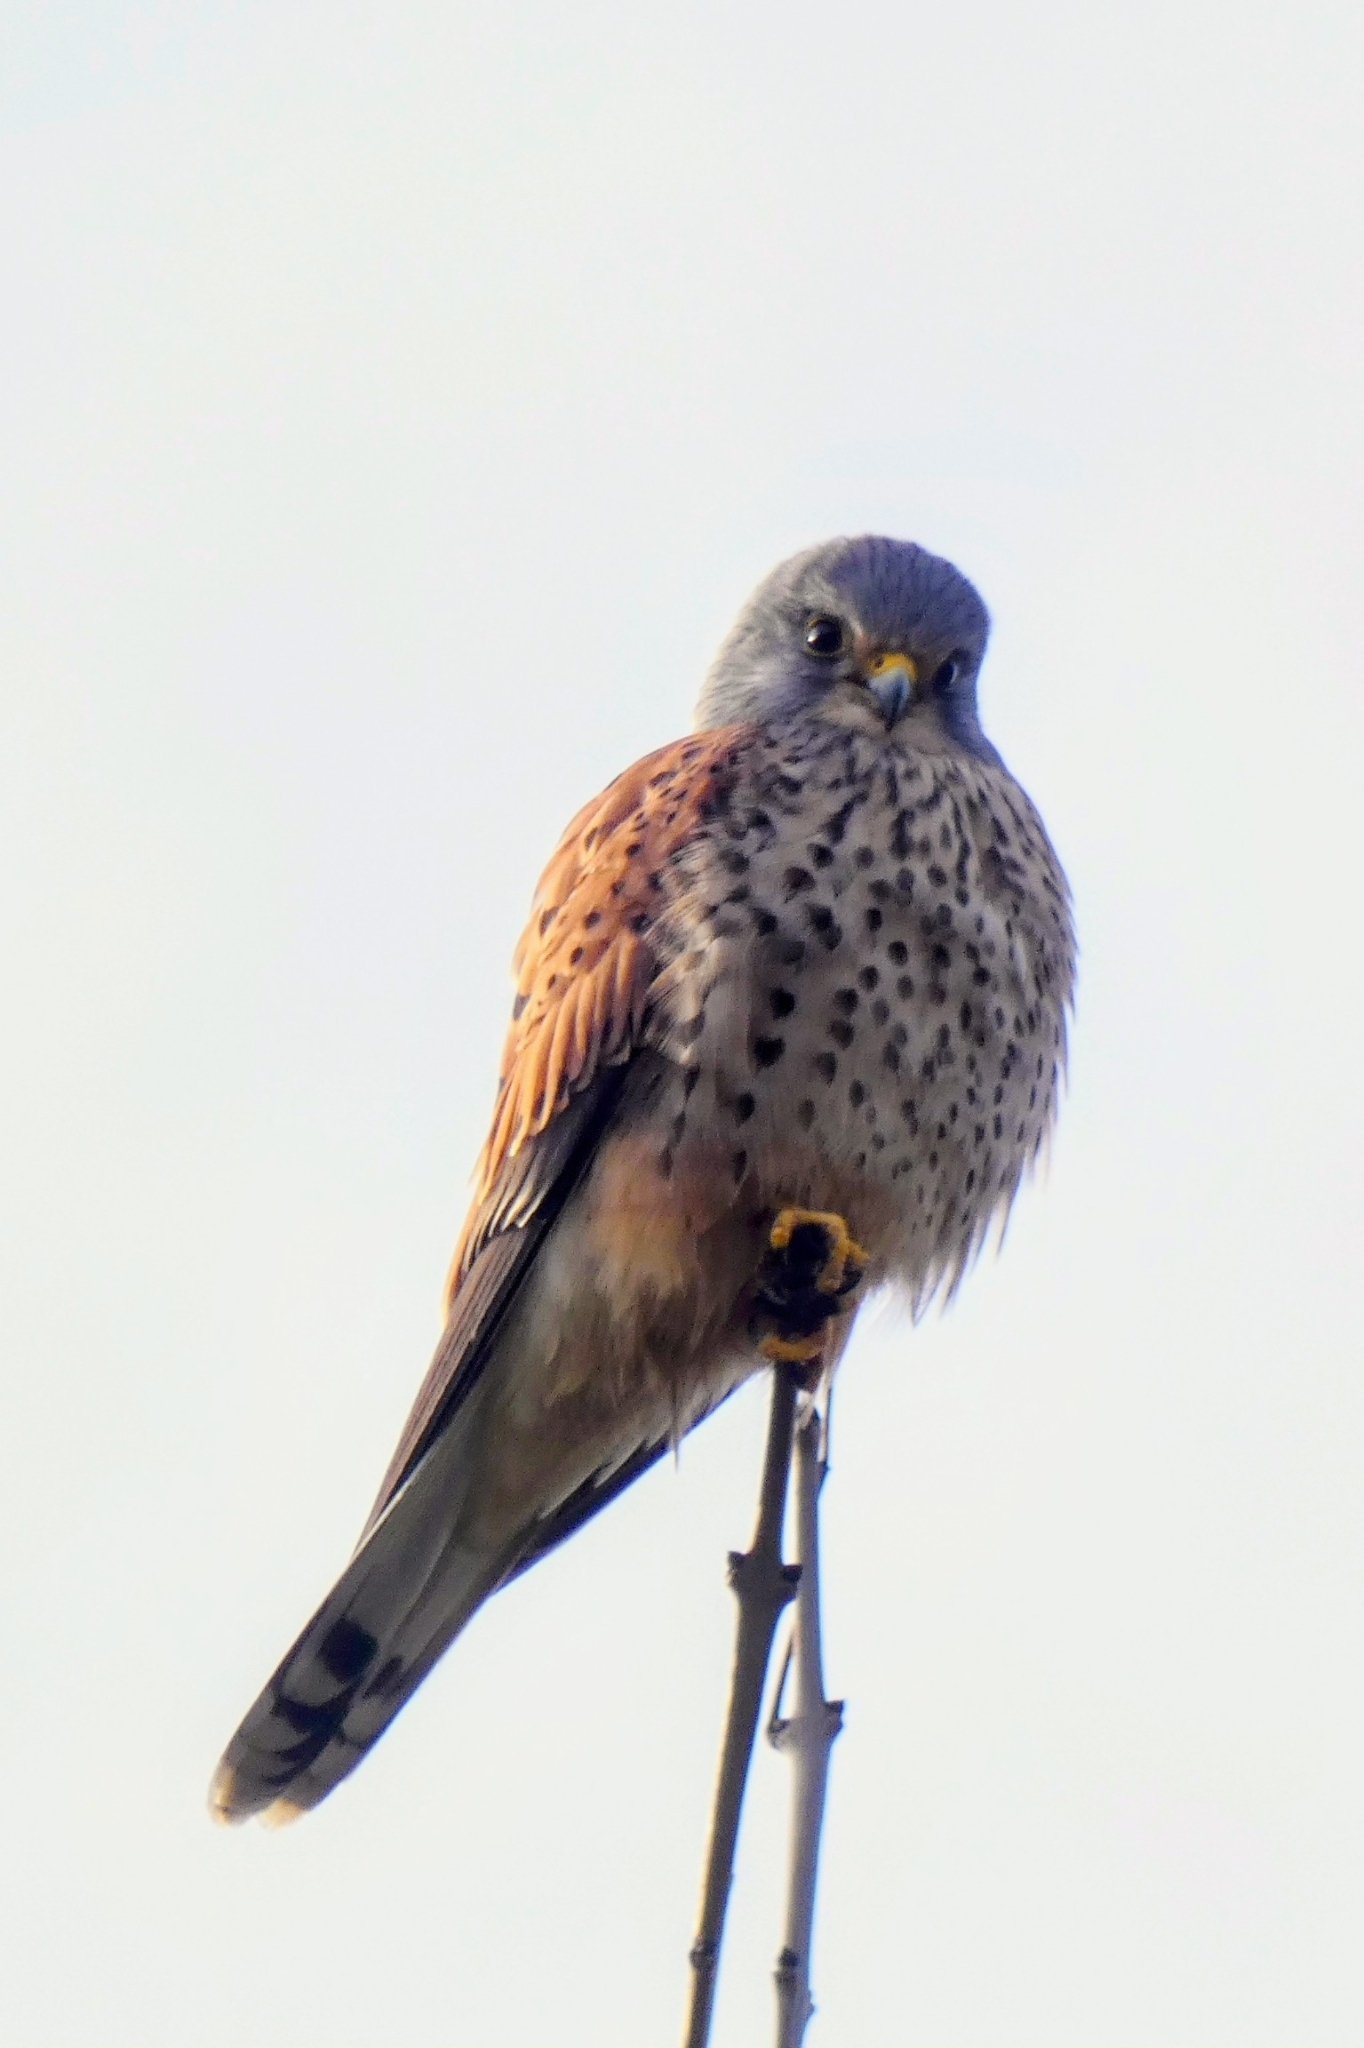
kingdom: Animalia
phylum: Chordata
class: Aves
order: Falconiformes
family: Falconidae
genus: Falco
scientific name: Falco tinnunculus
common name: Common kestrel
